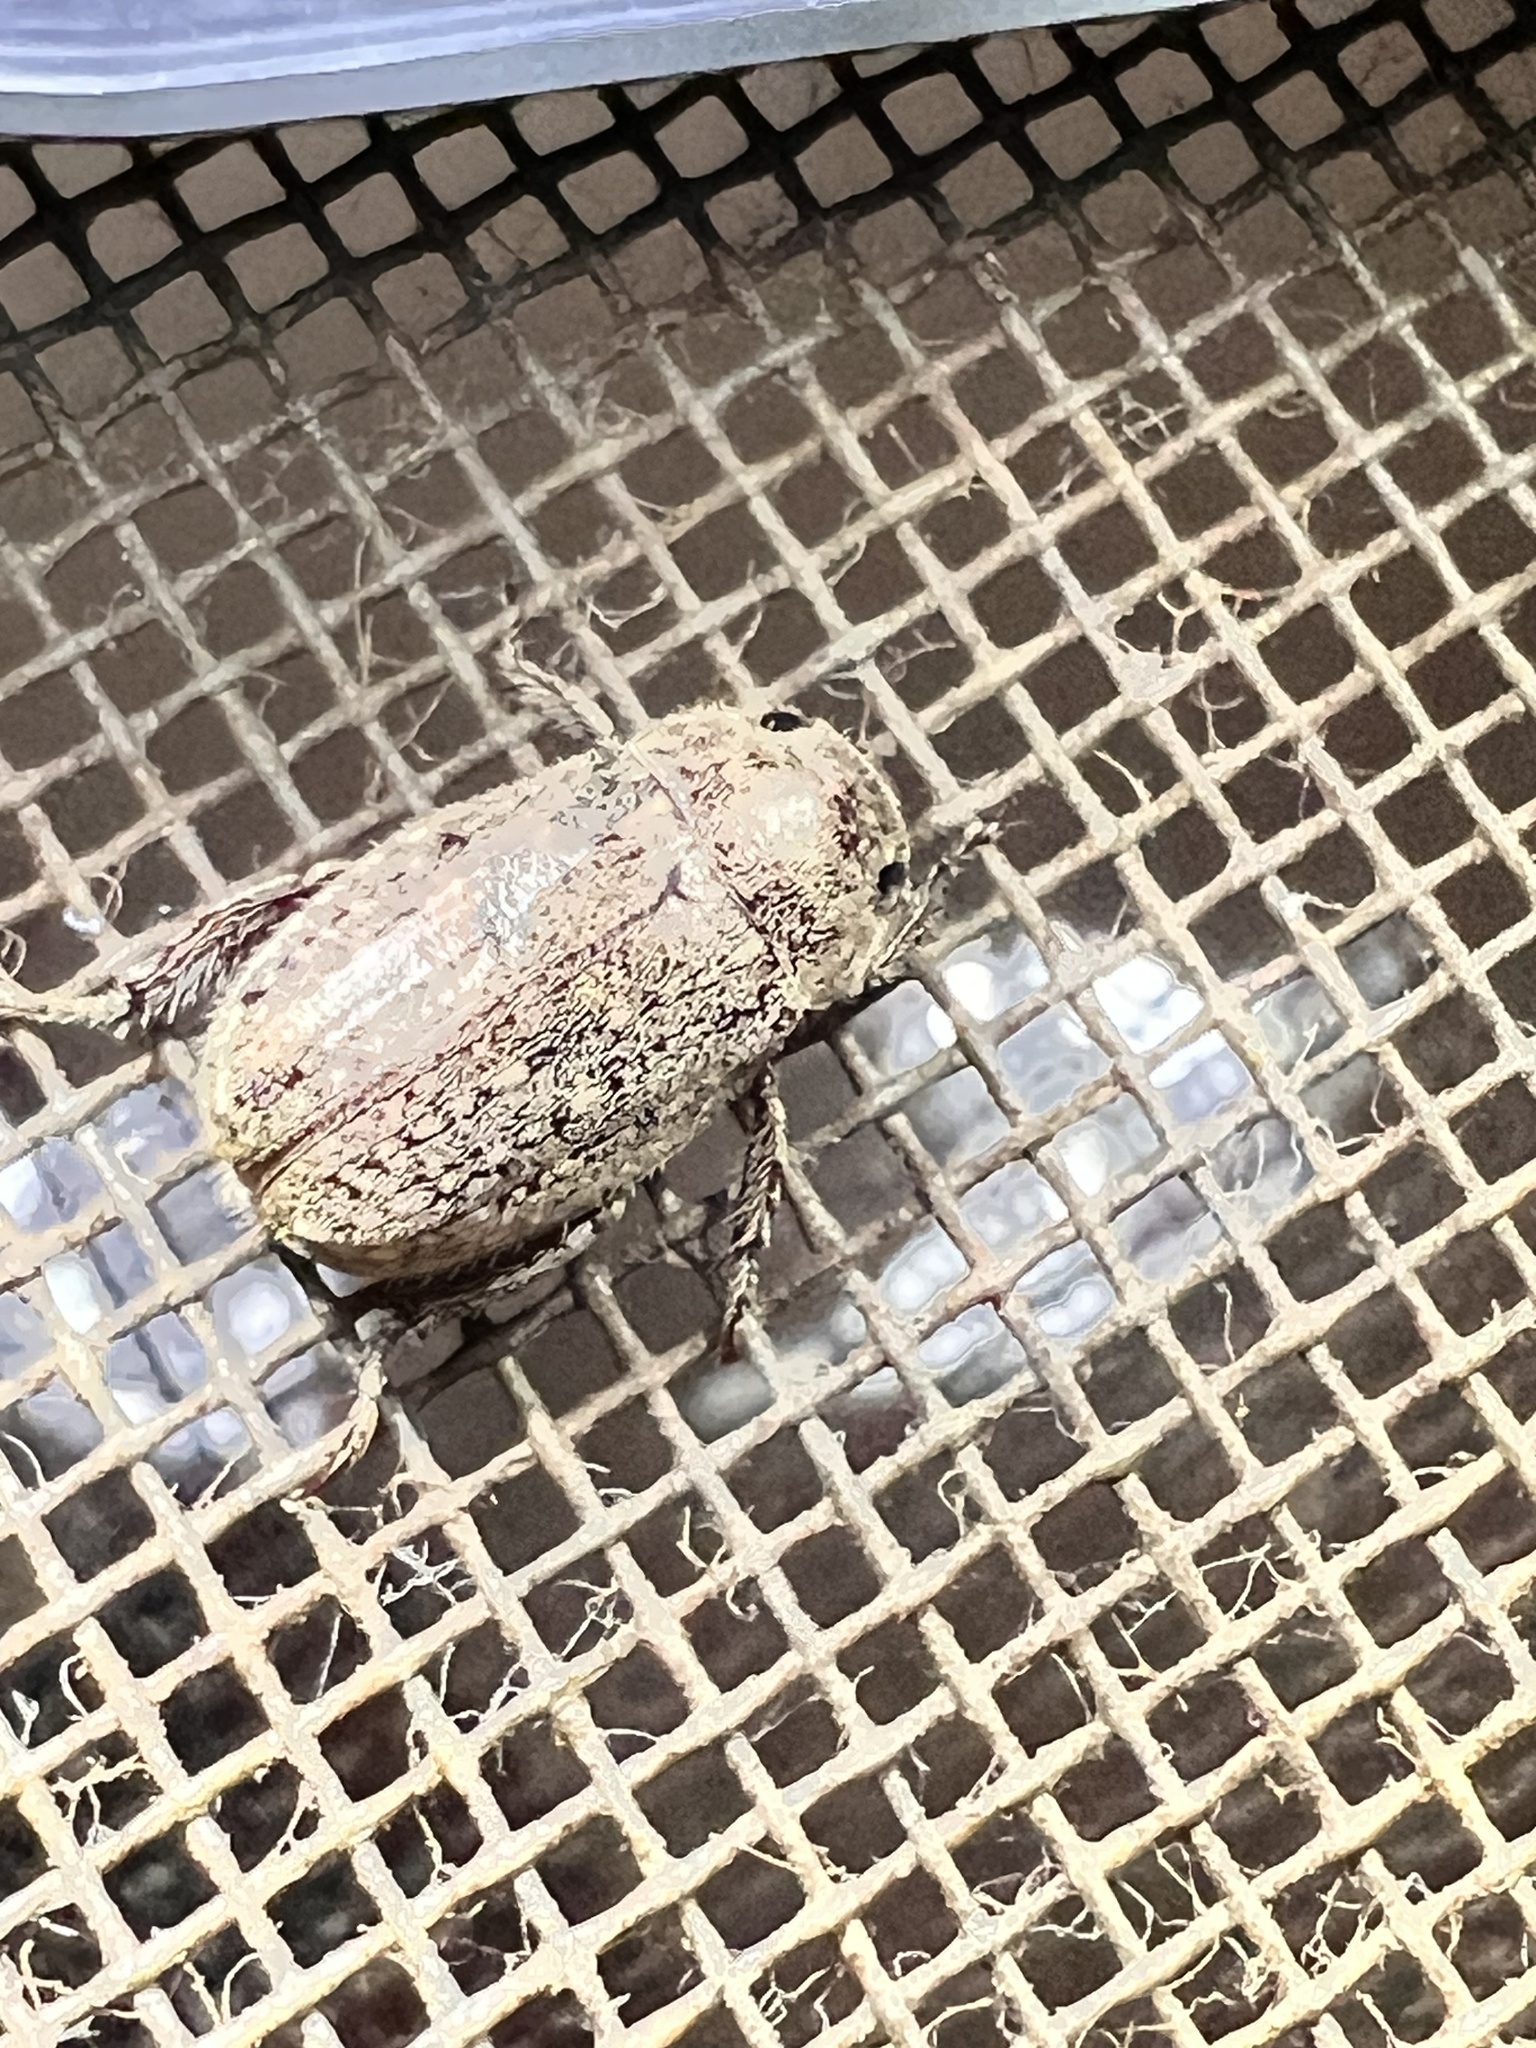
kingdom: Animalia
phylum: Arthropoda
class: Insecta
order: Coleoptera
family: Scarabaeidae
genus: Adoretus
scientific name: Adoretus sinicus
